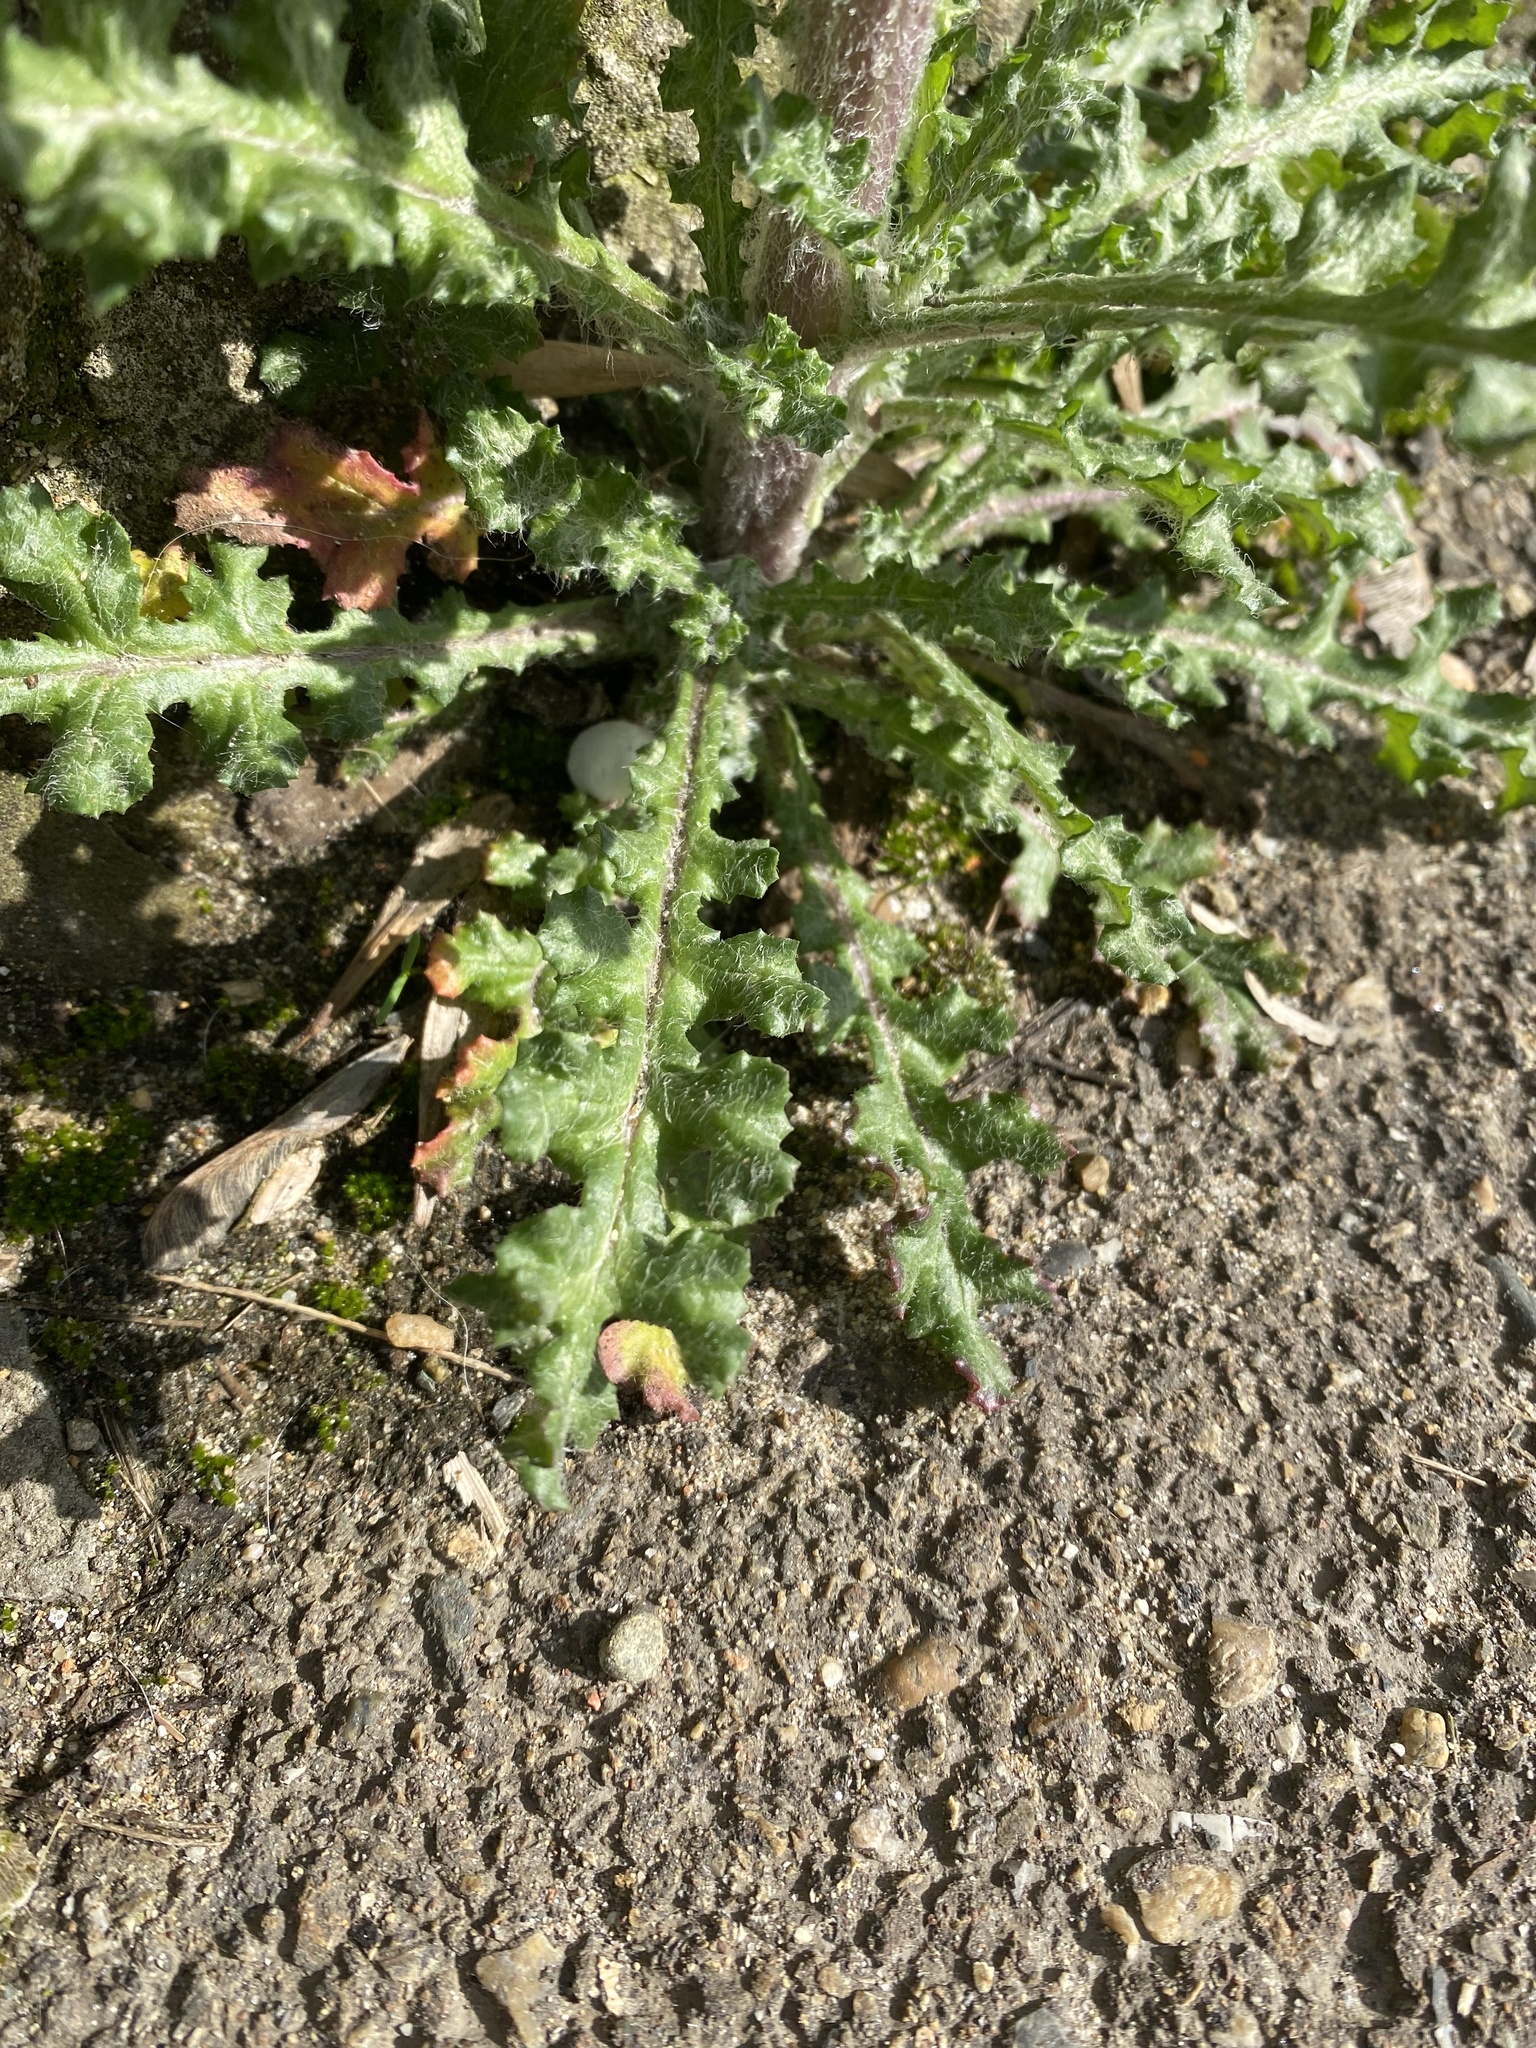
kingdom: Plantae
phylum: Tracheophyta
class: Magnoliopsida
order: Asterales
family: Asteraceae
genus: Senecio
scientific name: Senecio vernalis
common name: Eastern groundsel
